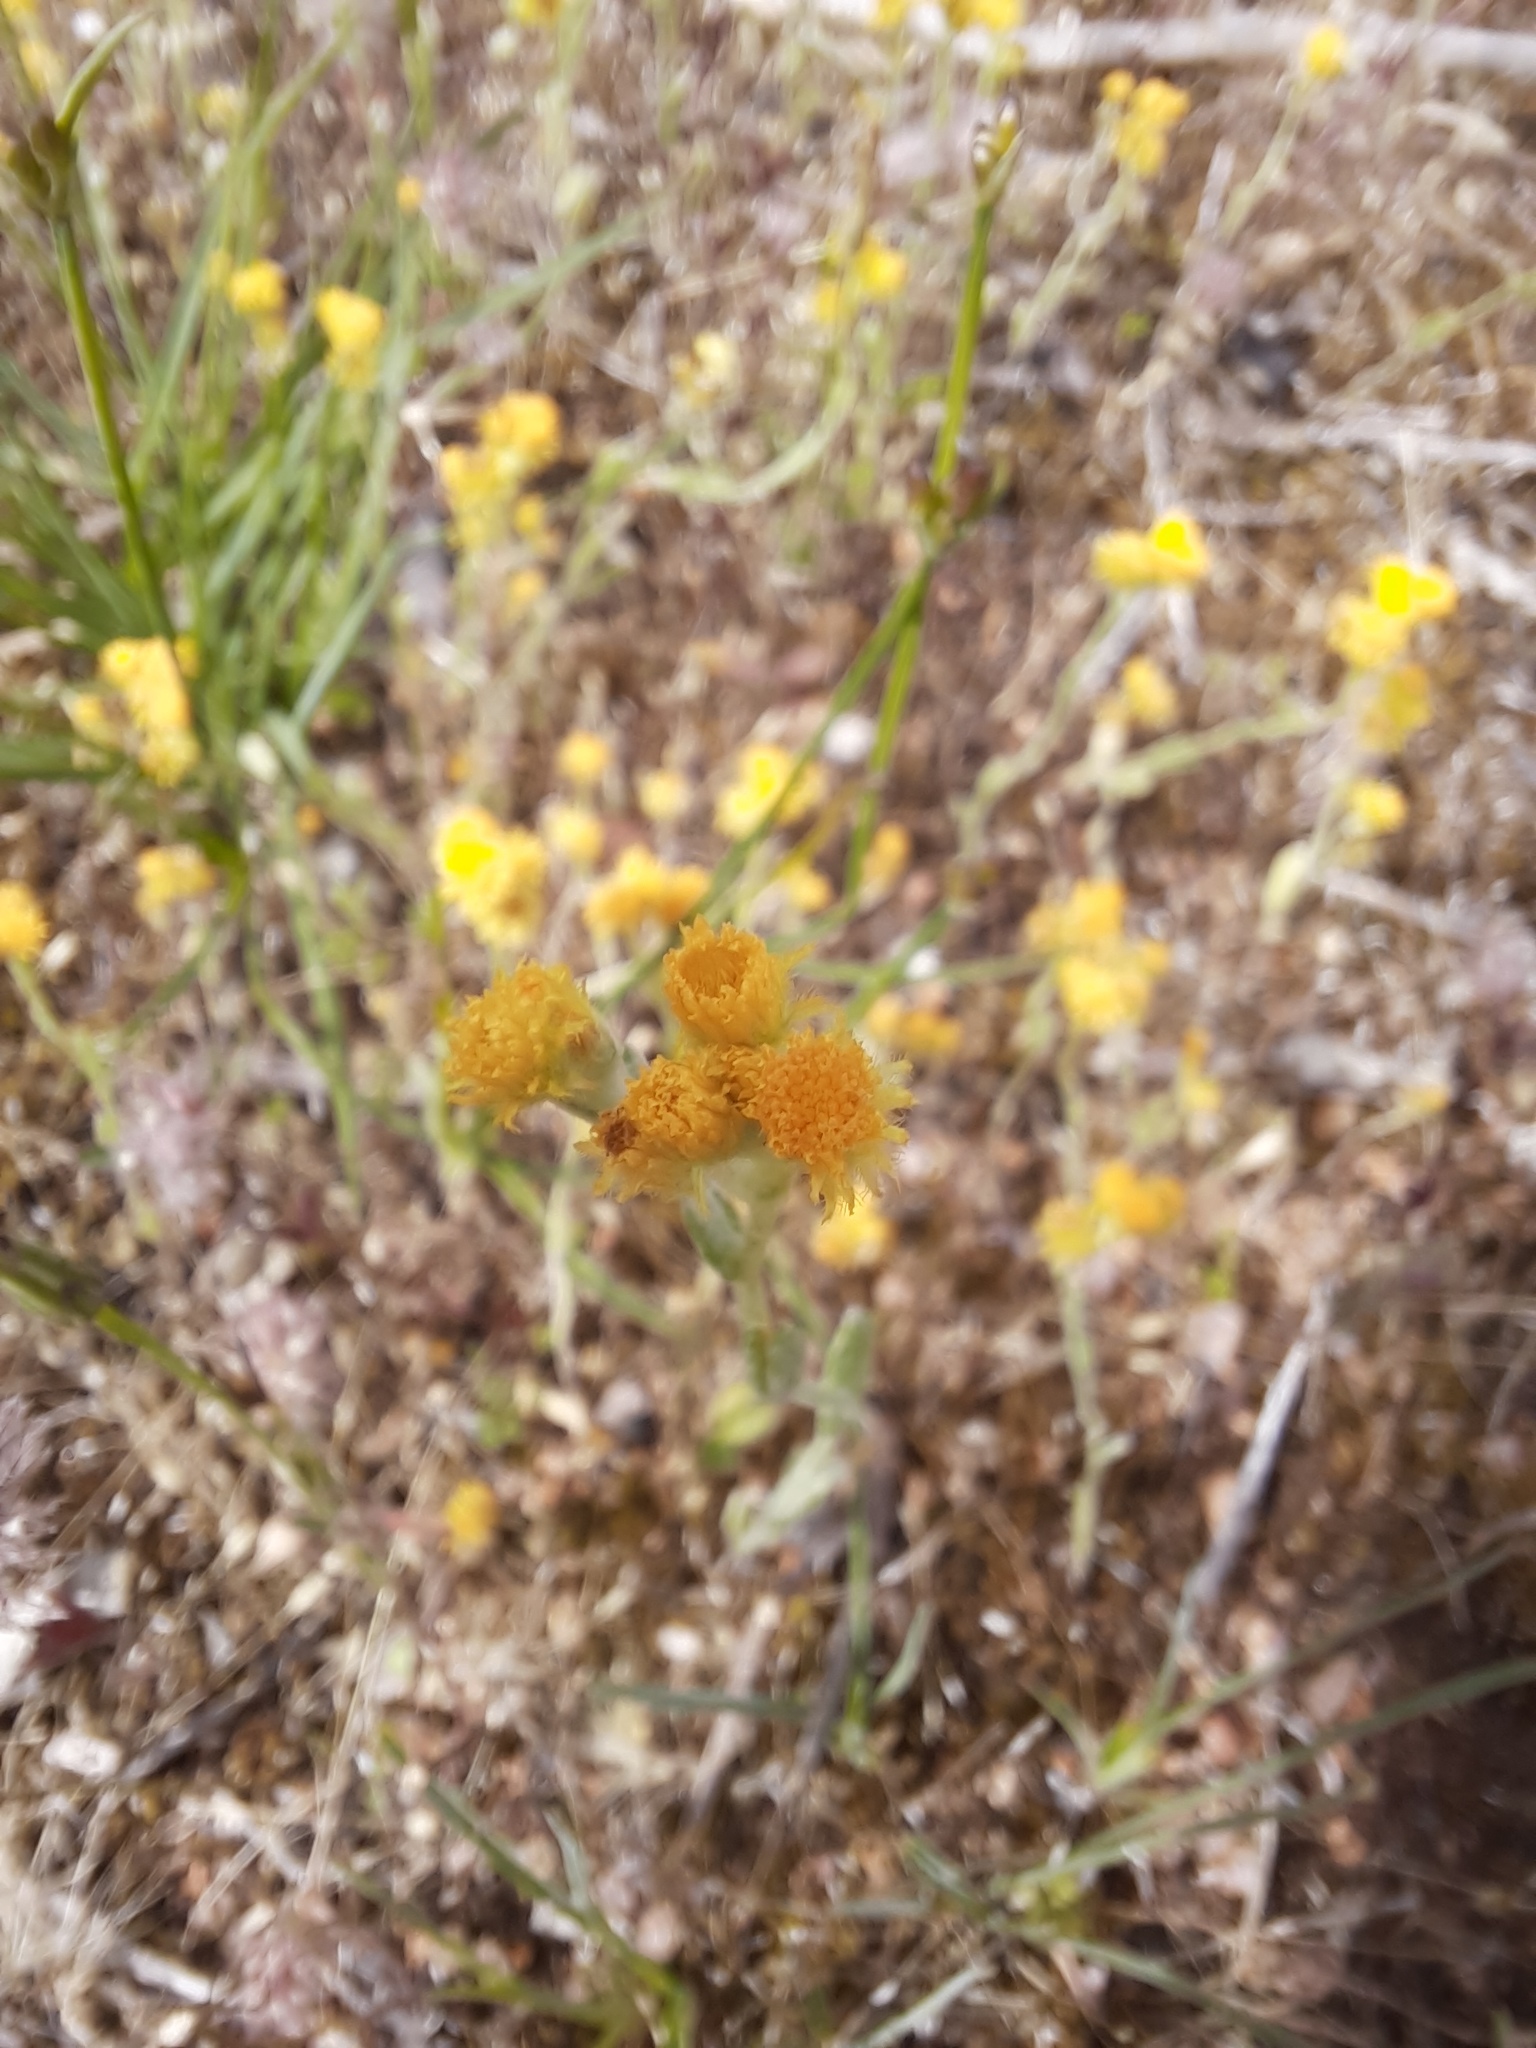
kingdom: Plantae
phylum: Tracheophyta
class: Magnoliopsida
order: Asterales
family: Asteraceae
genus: Chrysocephalum
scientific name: Chrysocephalum apiculatum
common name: Common everlasting
